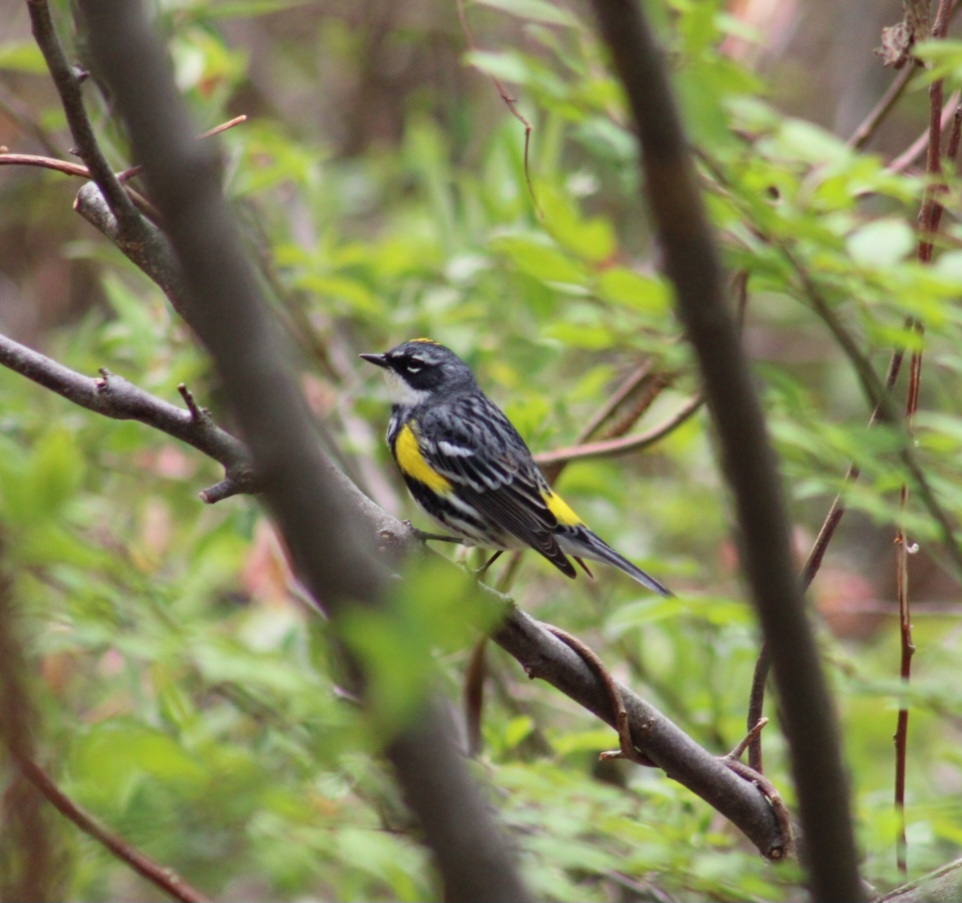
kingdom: Animalia
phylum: Chordata
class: Aves
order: Passeriformes
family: Parulidae
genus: Setophaga
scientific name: Setophaga coronata
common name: Myrtle warbler
